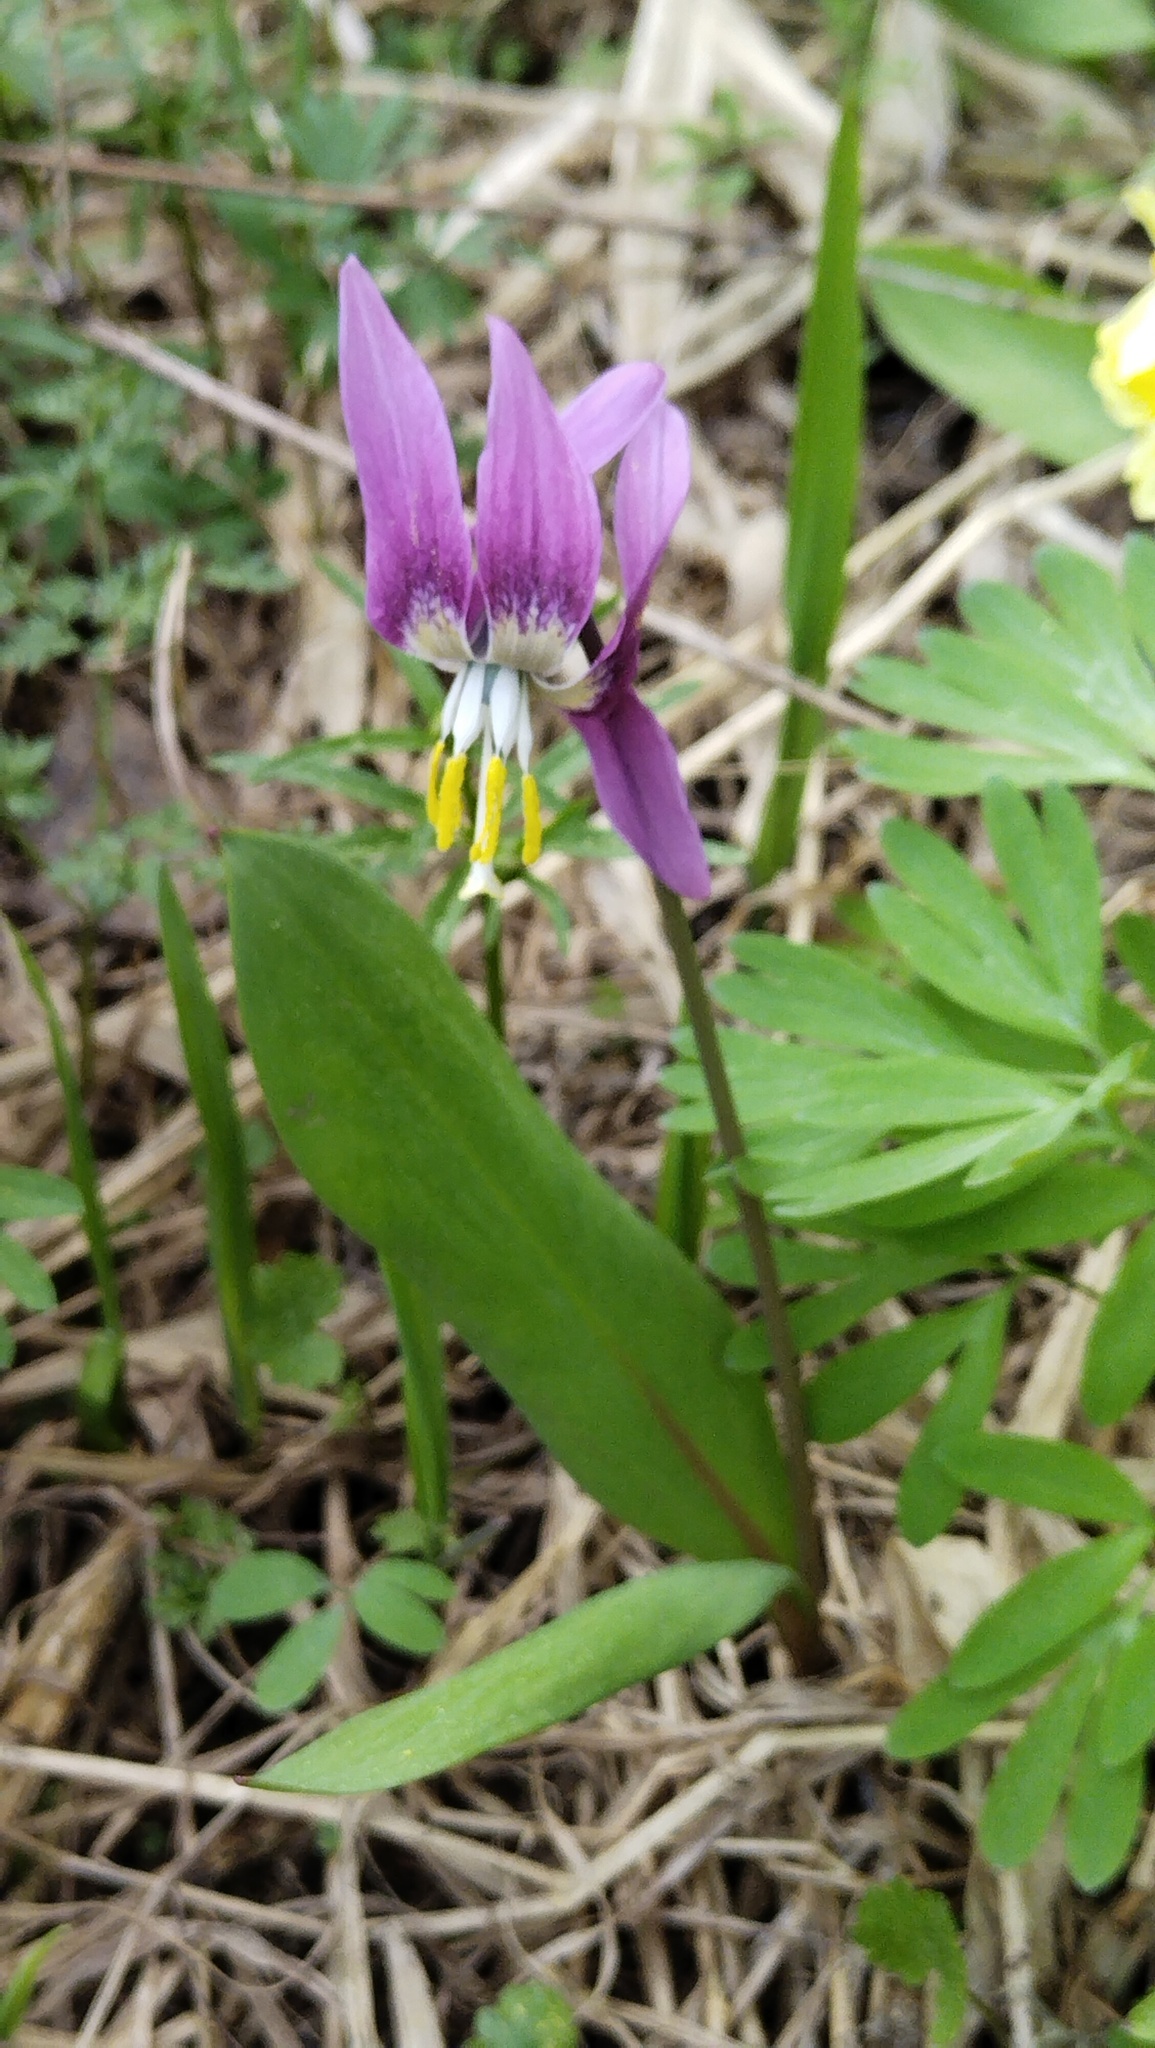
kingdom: Plantae
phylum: Tracheophyta
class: Liliopsida
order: Liliales
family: Liliaceae
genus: Erythronium
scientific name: Erythronium sibiricum
